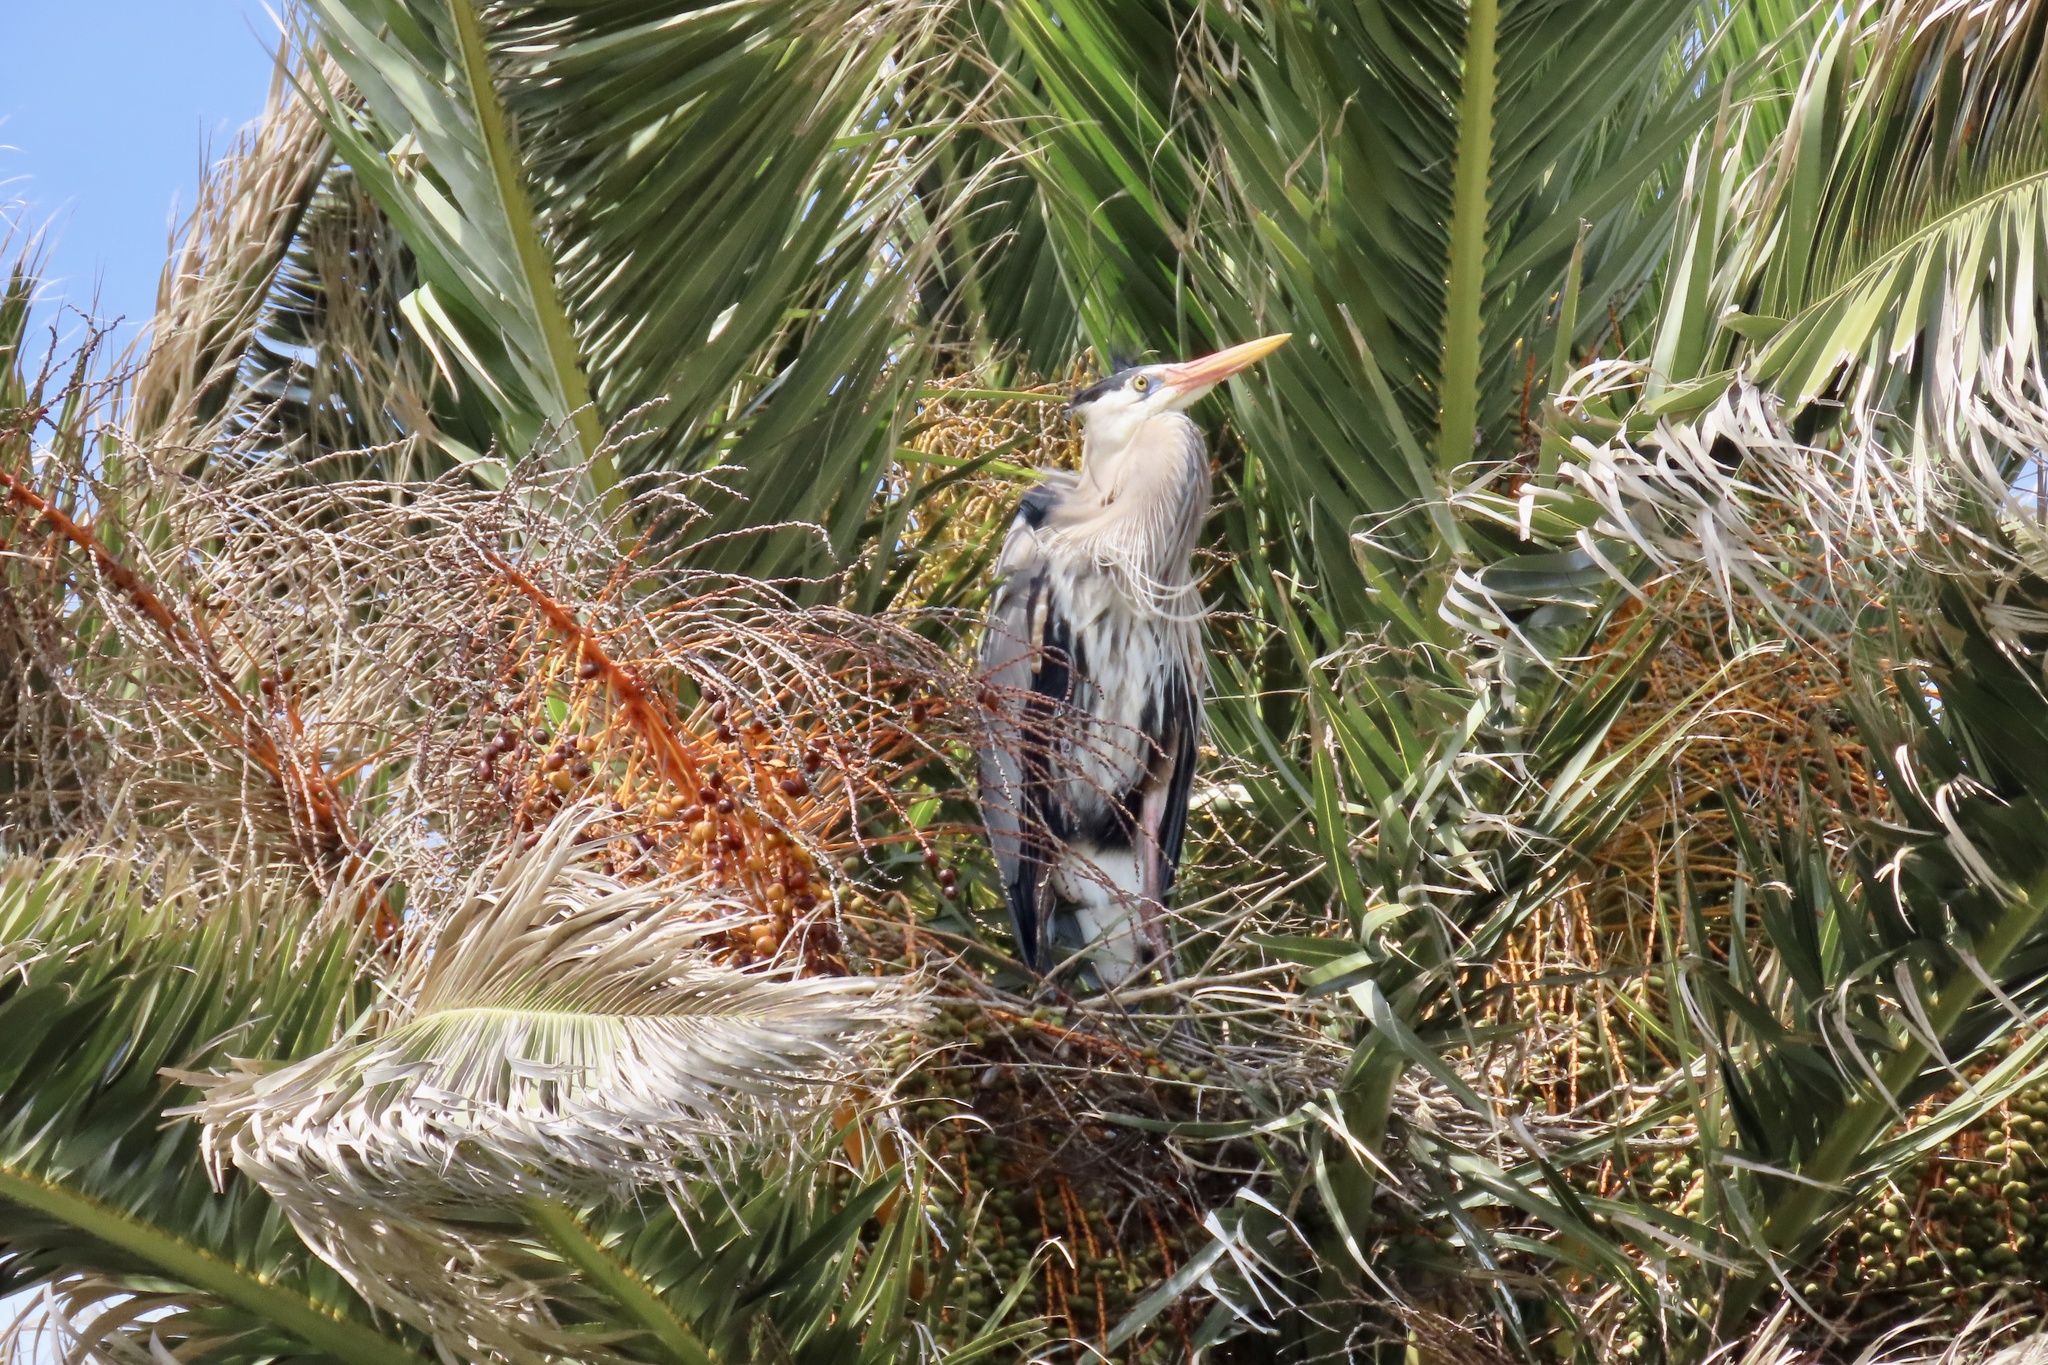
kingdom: Animalia
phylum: Chordata
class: Aves
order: Pelecaniformes
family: Ardeidae
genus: Ardea
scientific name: Ardea herodias
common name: Great blue heron
